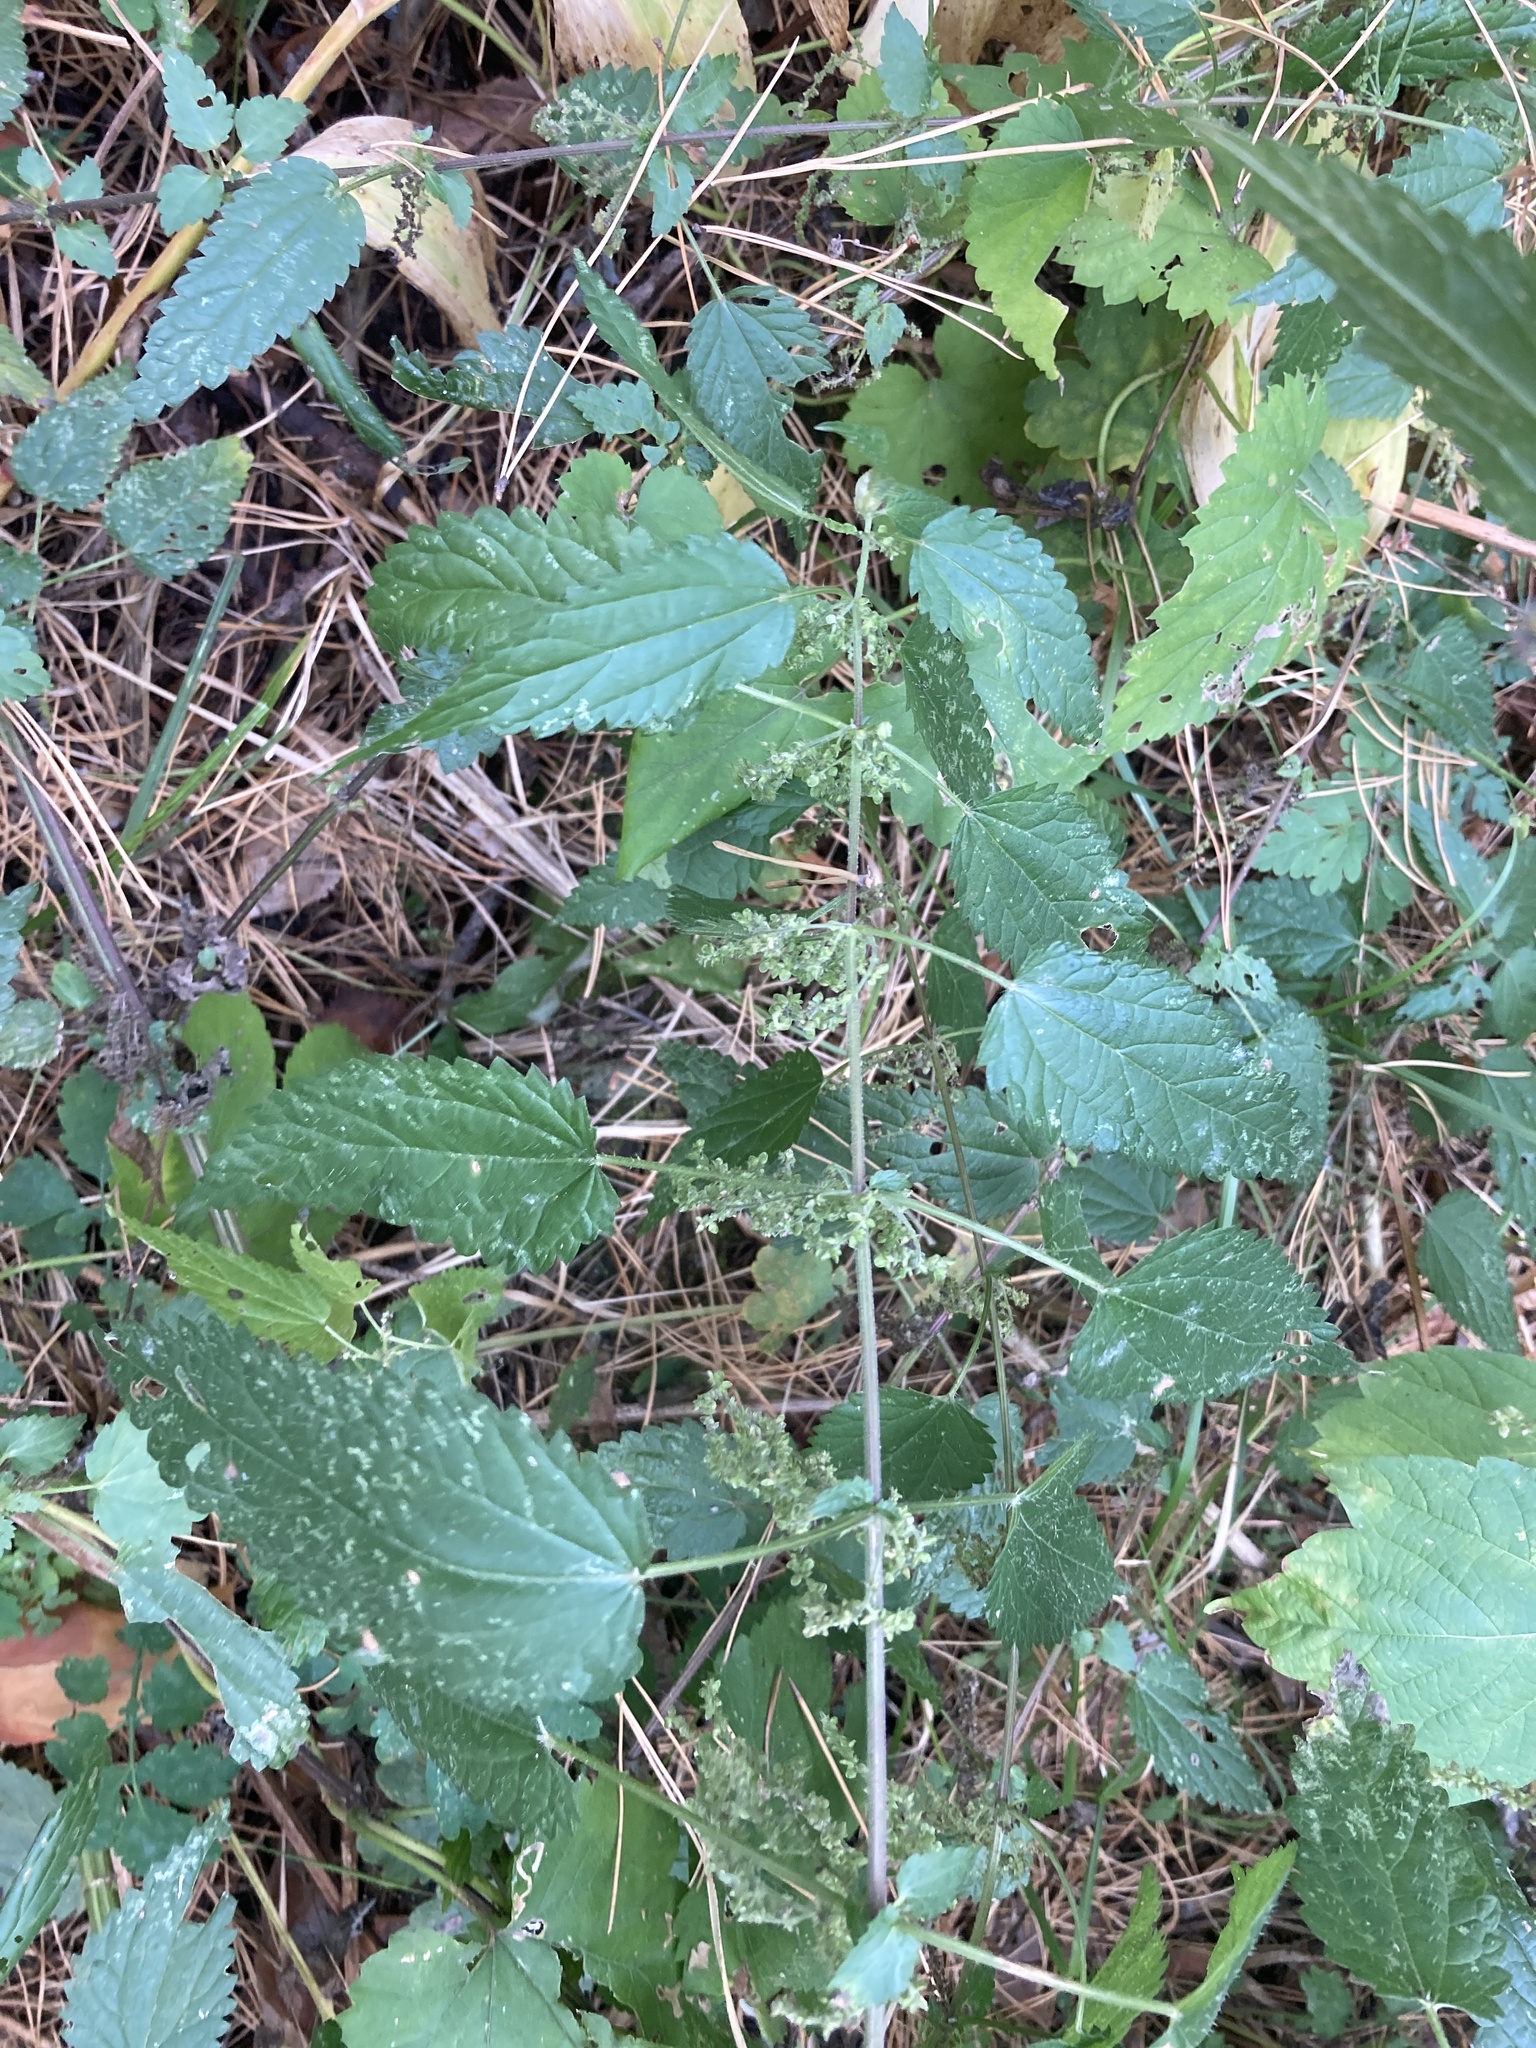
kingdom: Plantae
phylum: Tracheophyta
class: Magnoliopsida
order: Rosales
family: Urticaceae
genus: Urtica
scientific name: Urtica dioica
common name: Common nettle
